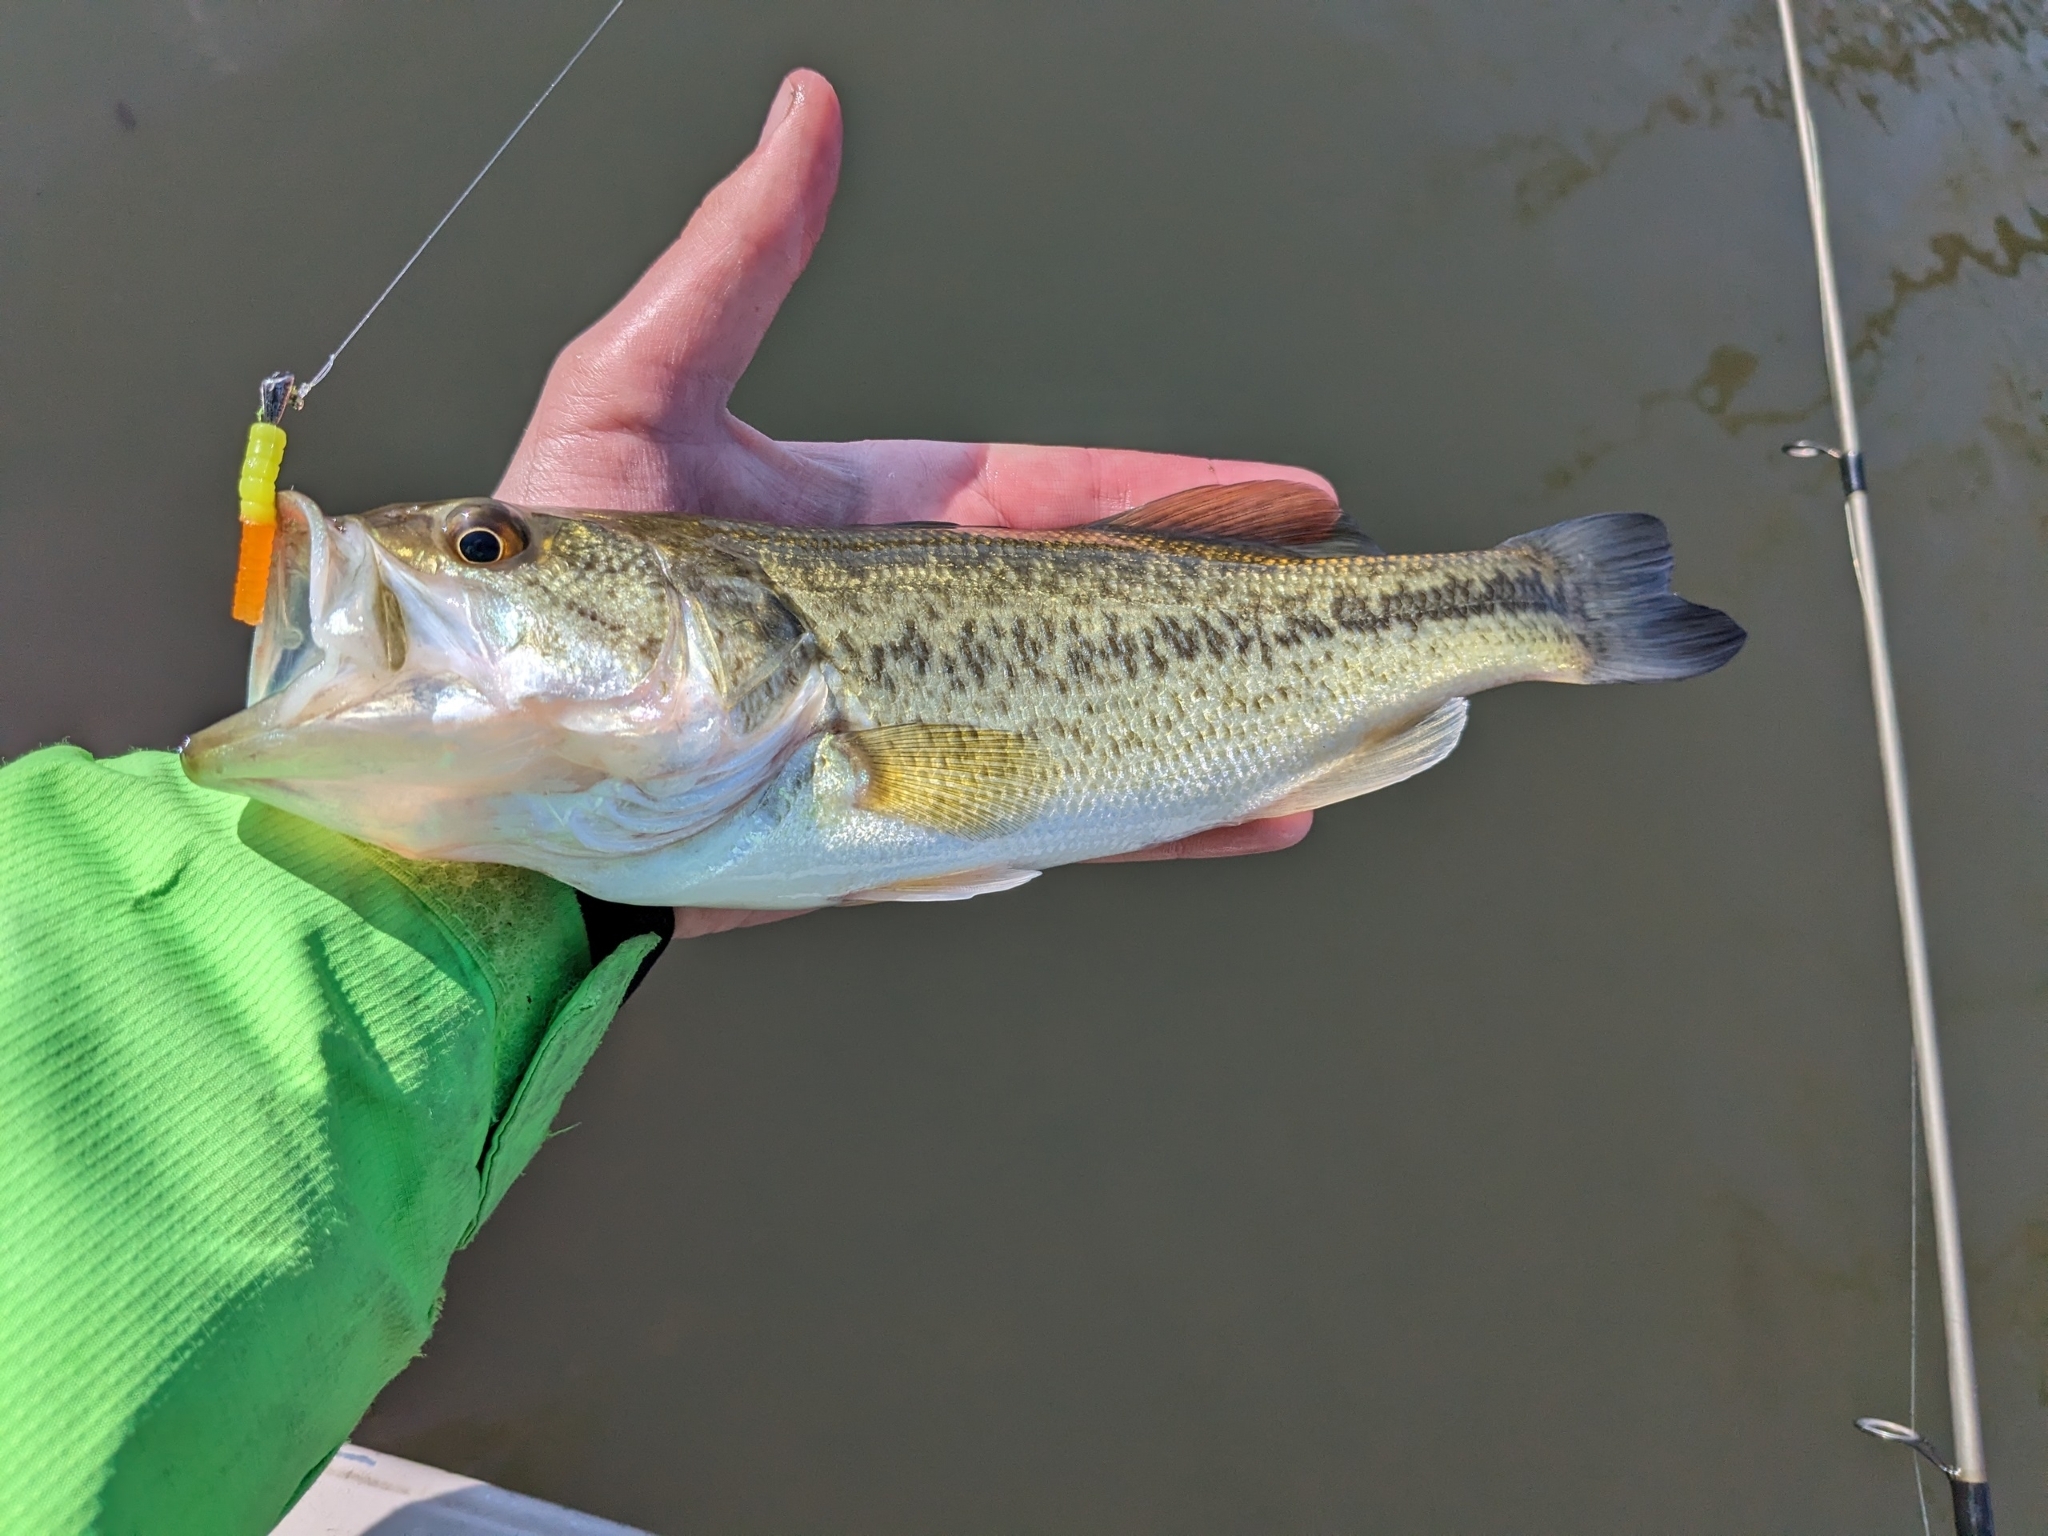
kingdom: Animalia
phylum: Chordata
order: Perciformes
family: Centrarchidae
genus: Micropterus
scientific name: Micropterus
